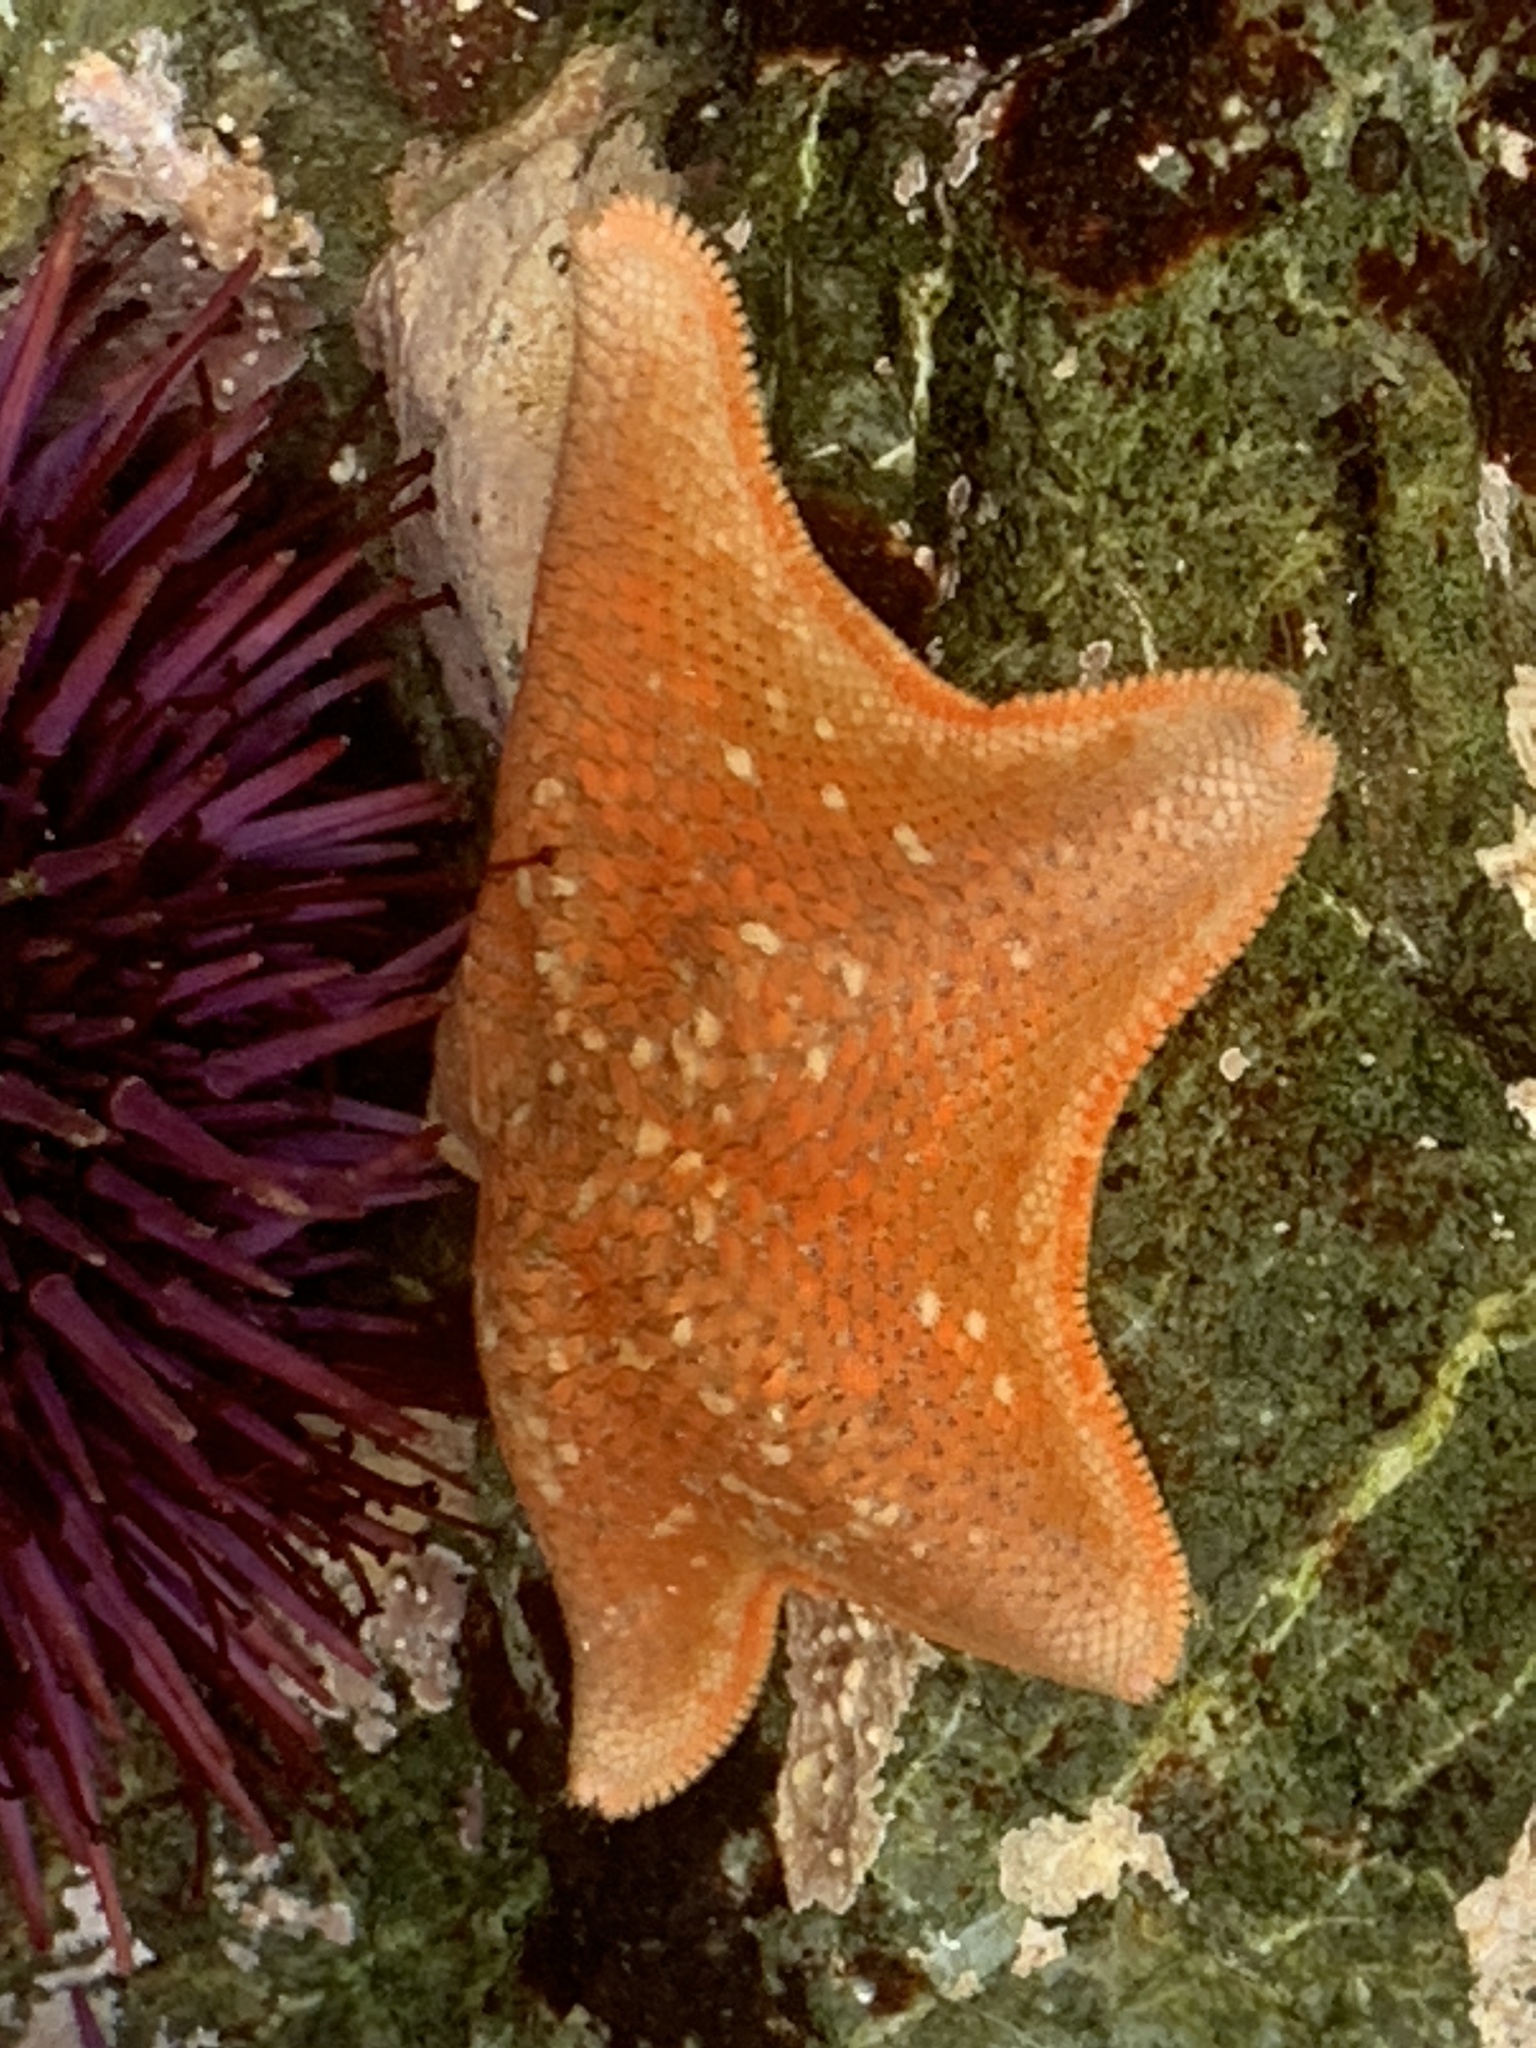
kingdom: Animalia
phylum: Echinodermata
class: Asteroidea
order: Valvatida
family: Asterinidae
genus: Patiria
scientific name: Patiria miniata
